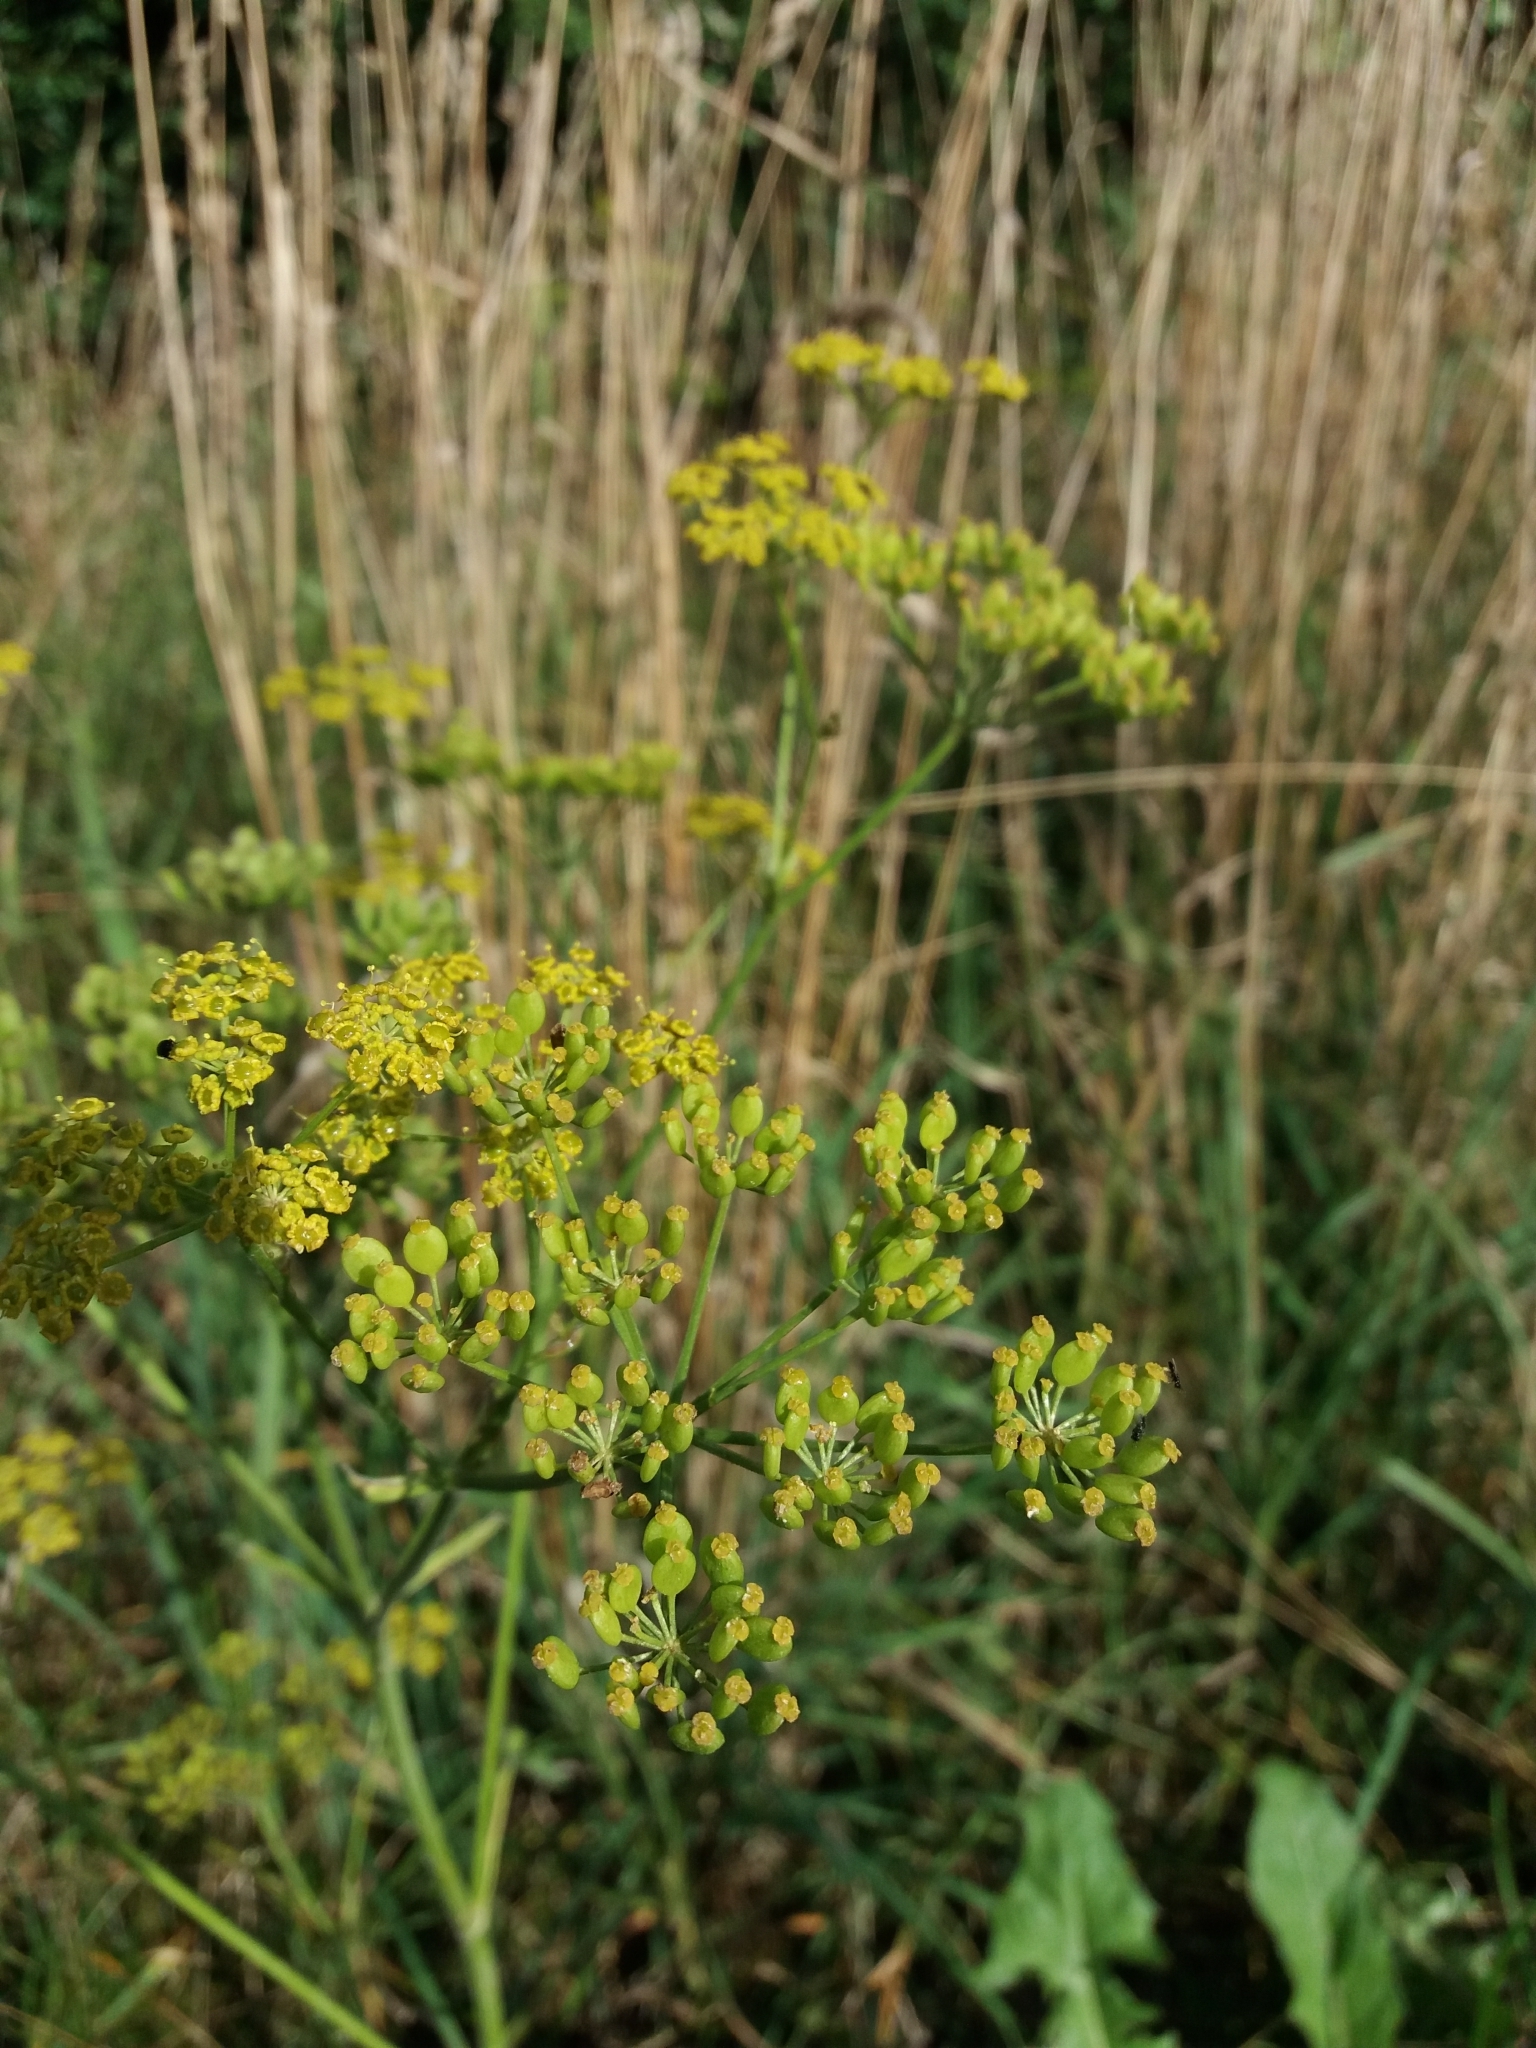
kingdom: Plantae
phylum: Tracheophyta
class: Magnoliopsida
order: Apiales
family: Apiaceae
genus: Pastinaca
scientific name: Pastinaca sativa
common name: Wild parsnip
